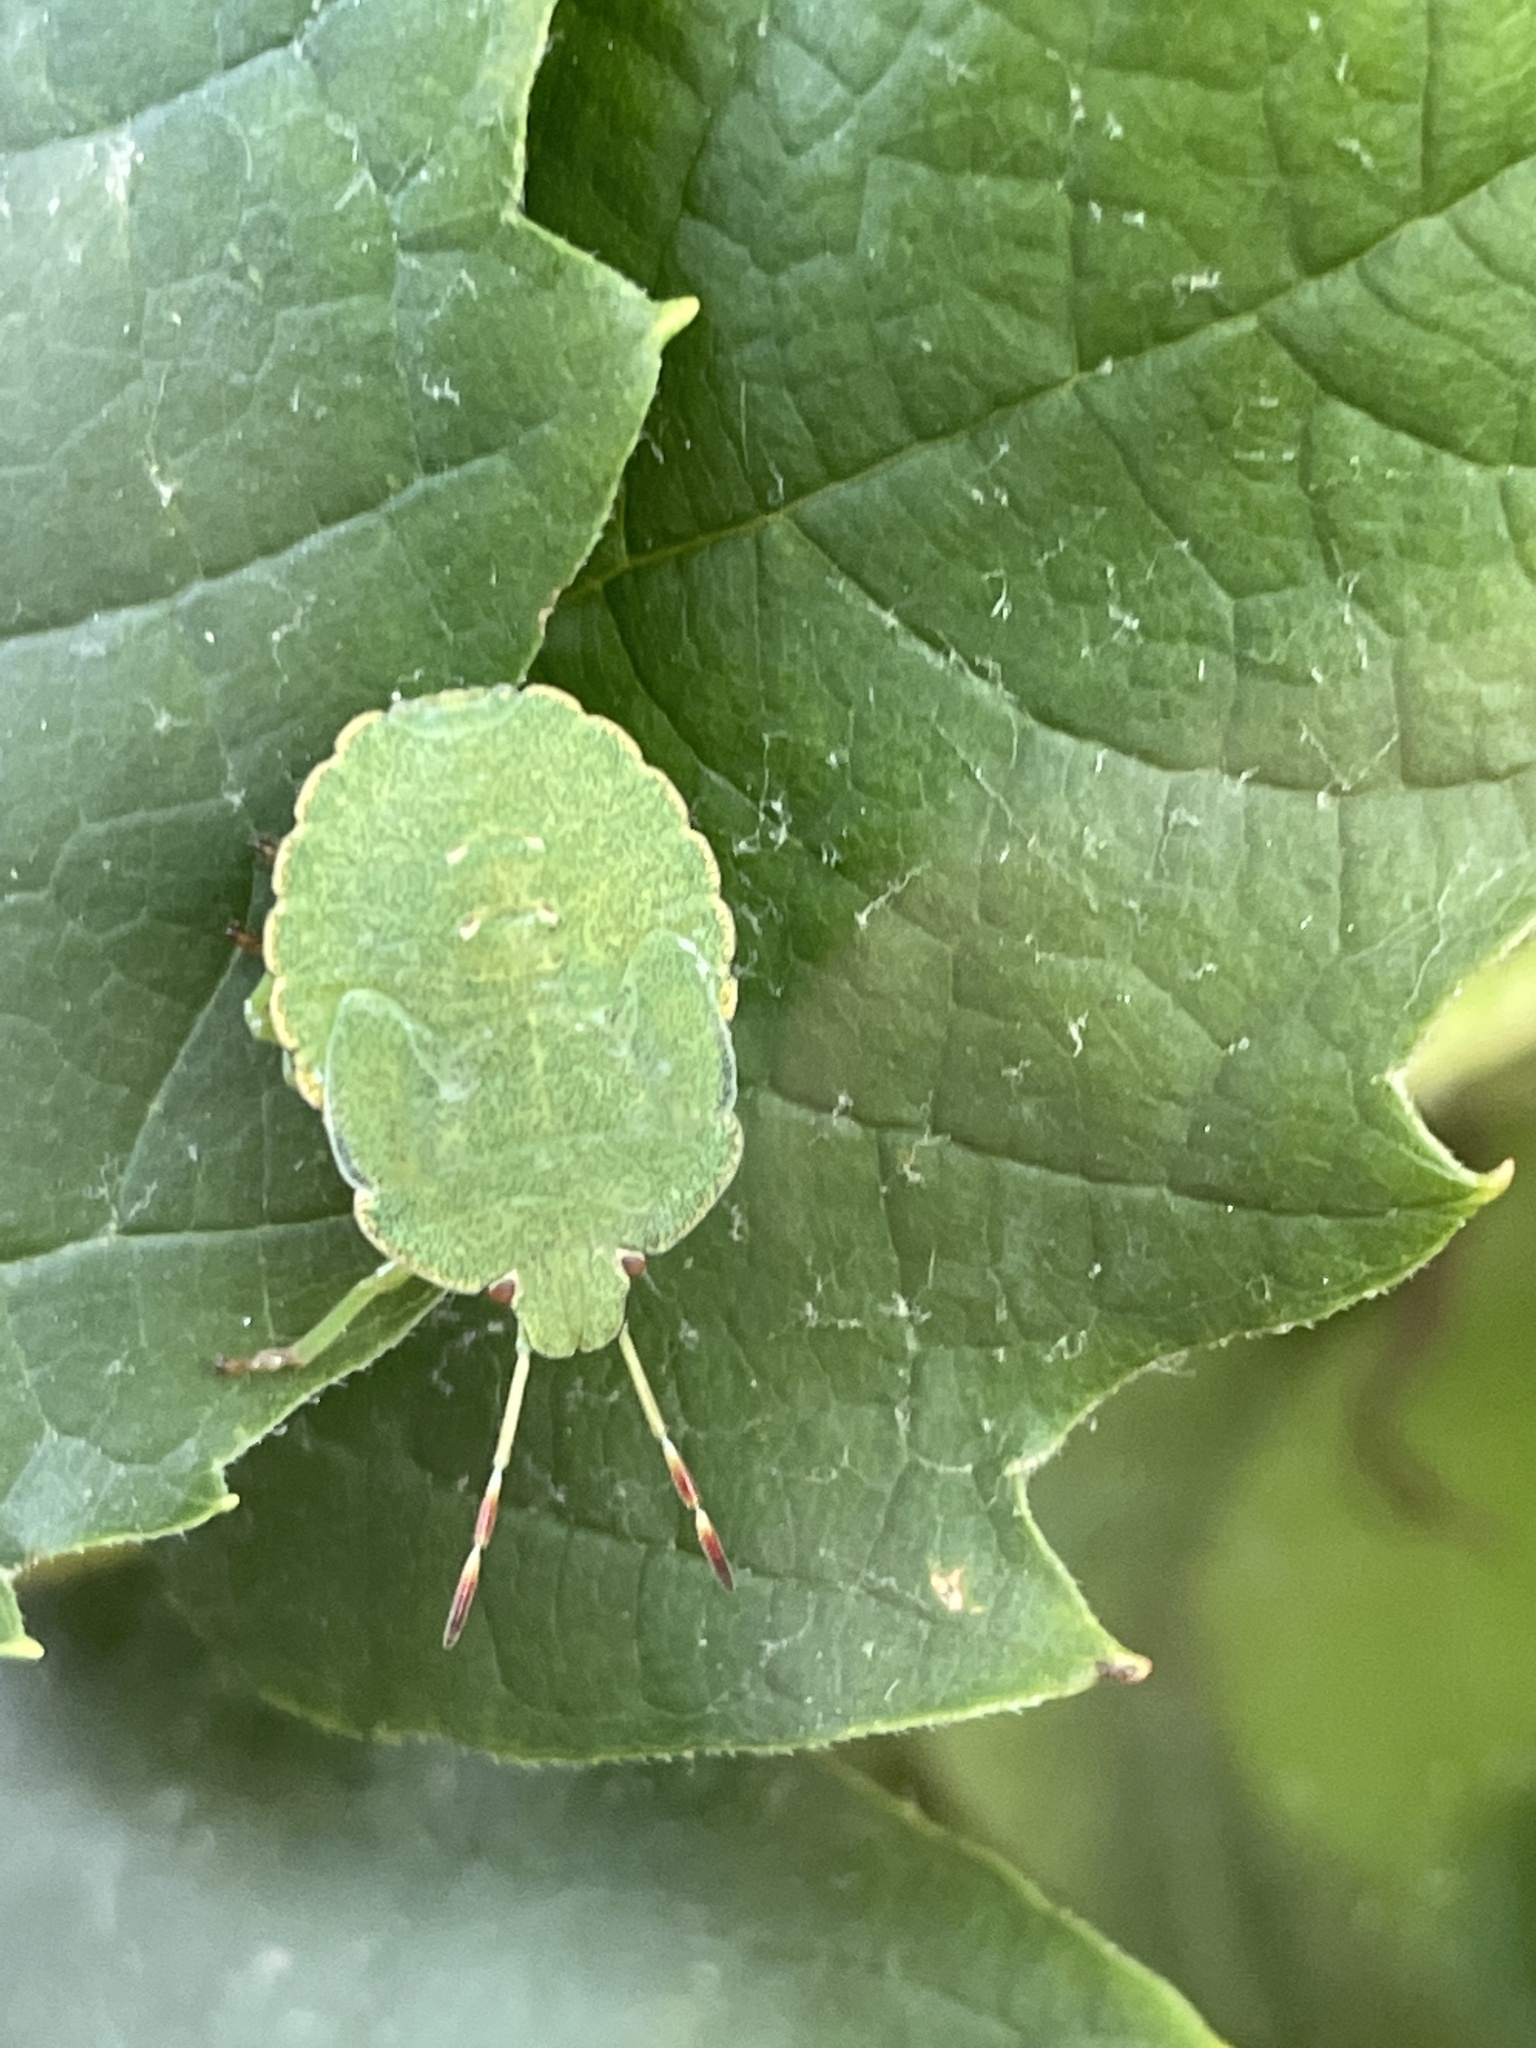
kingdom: Animalia
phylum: Arthropoda
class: Insecta
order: Hemiptera
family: Pentatomidae
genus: Palomena
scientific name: Palomena prasina
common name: Green shieldbug
